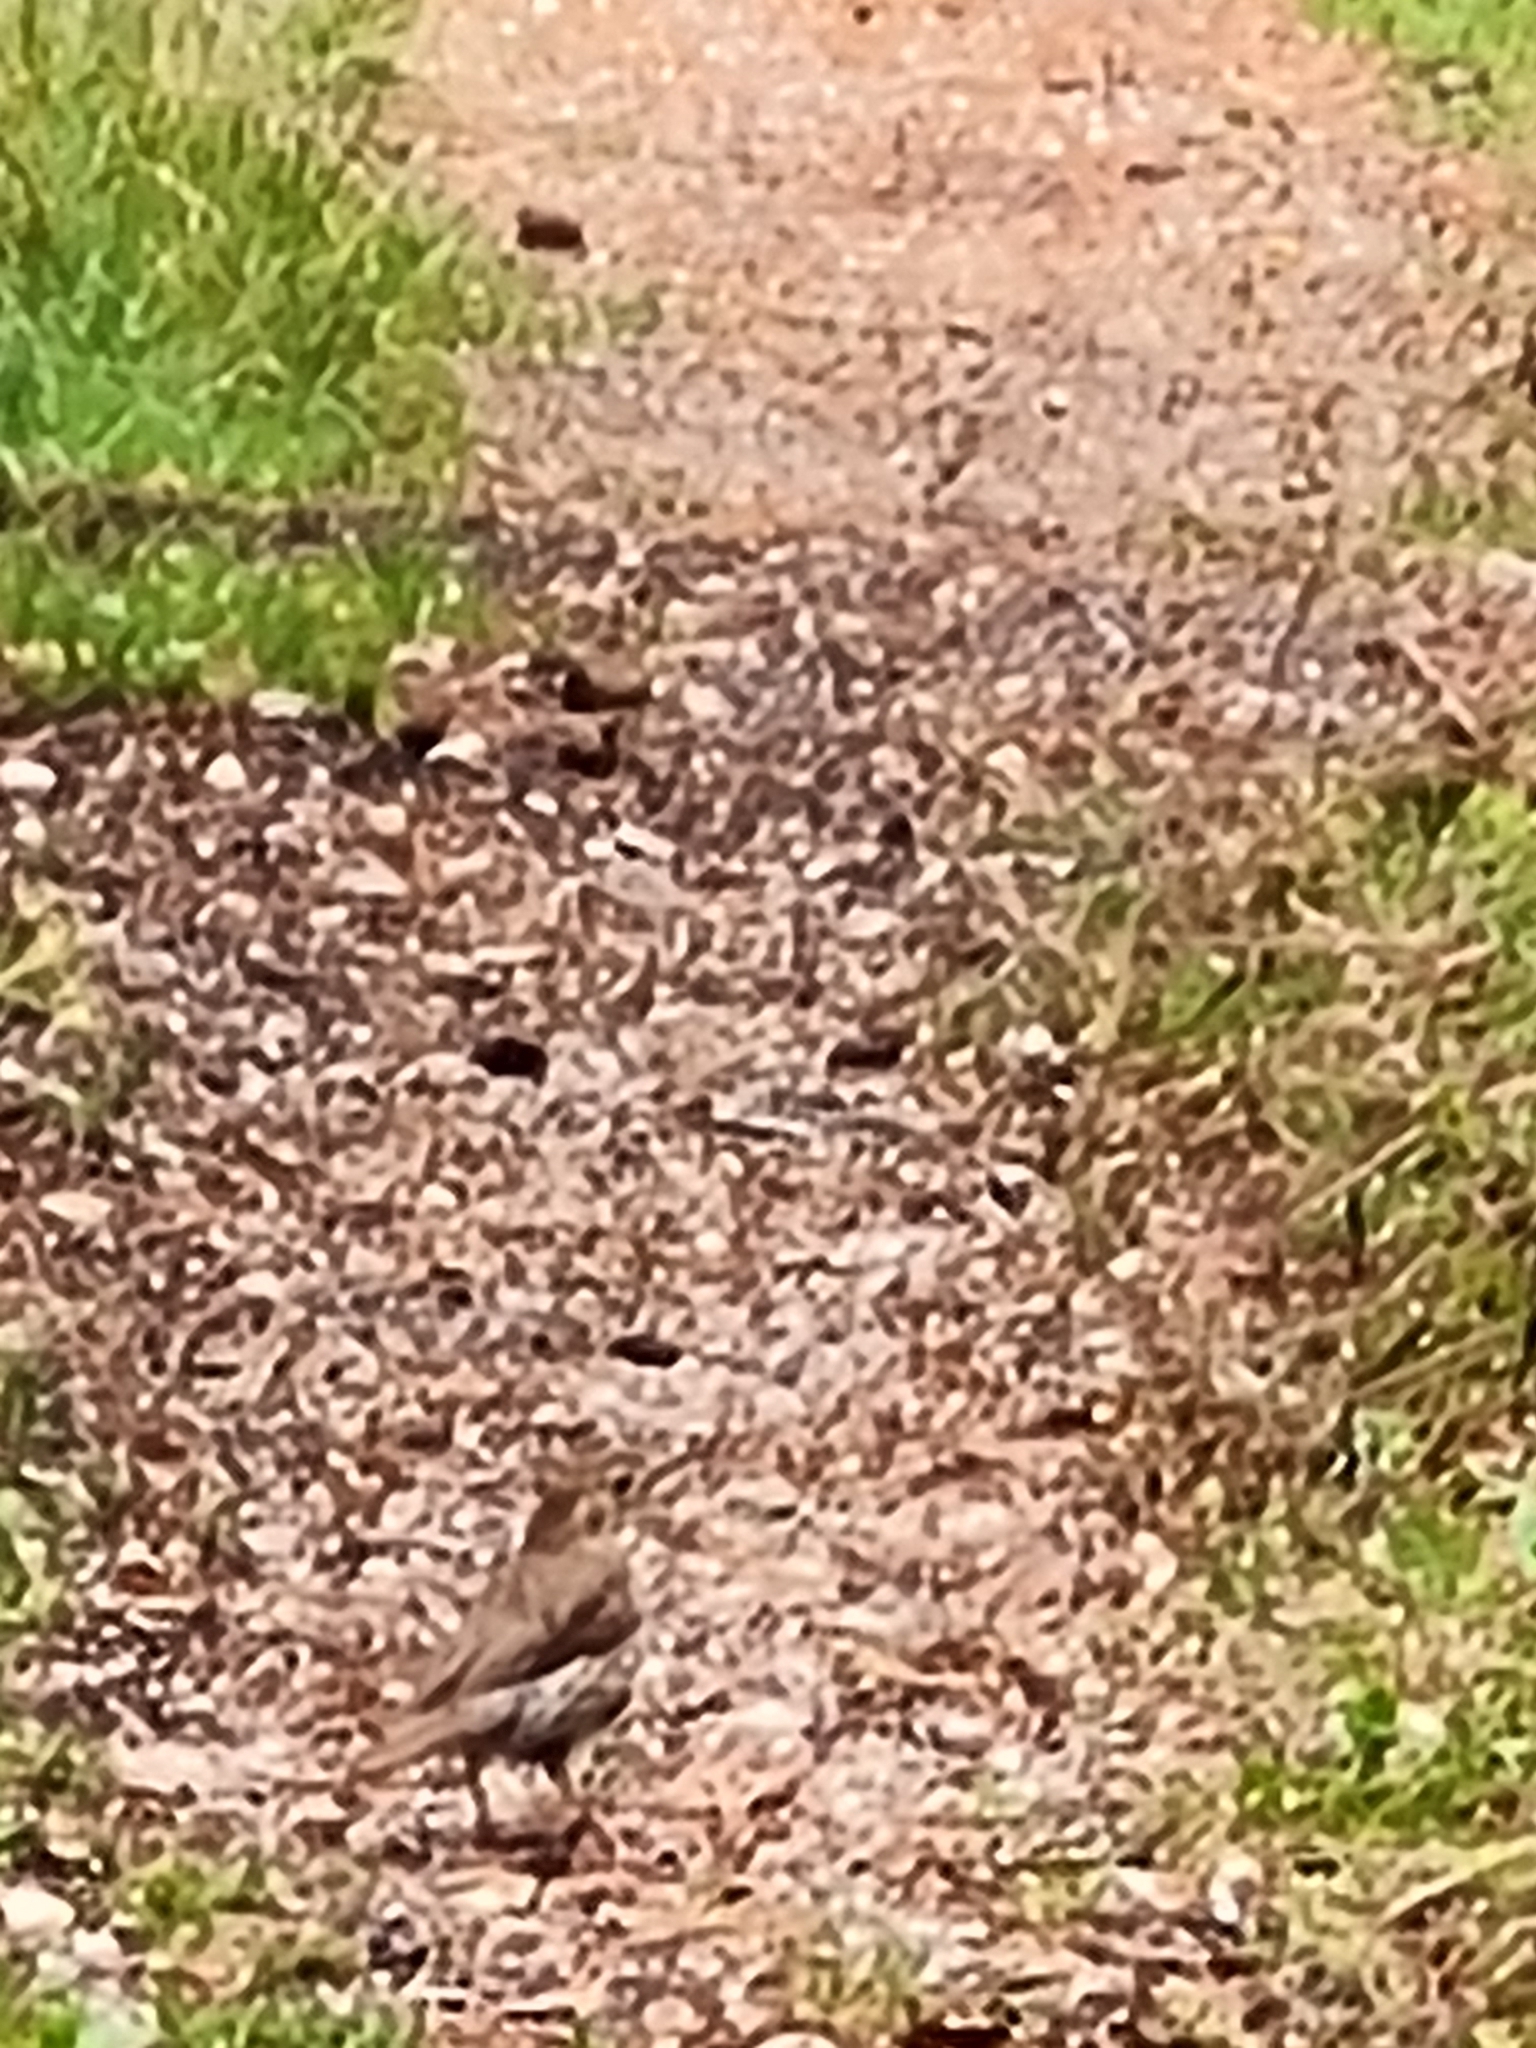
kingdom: Animalia
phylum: Chordata
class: Aves
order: Passeriformes
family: Turdidae
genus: Turdus
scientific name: Turdus philomelos
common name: Song thrush
